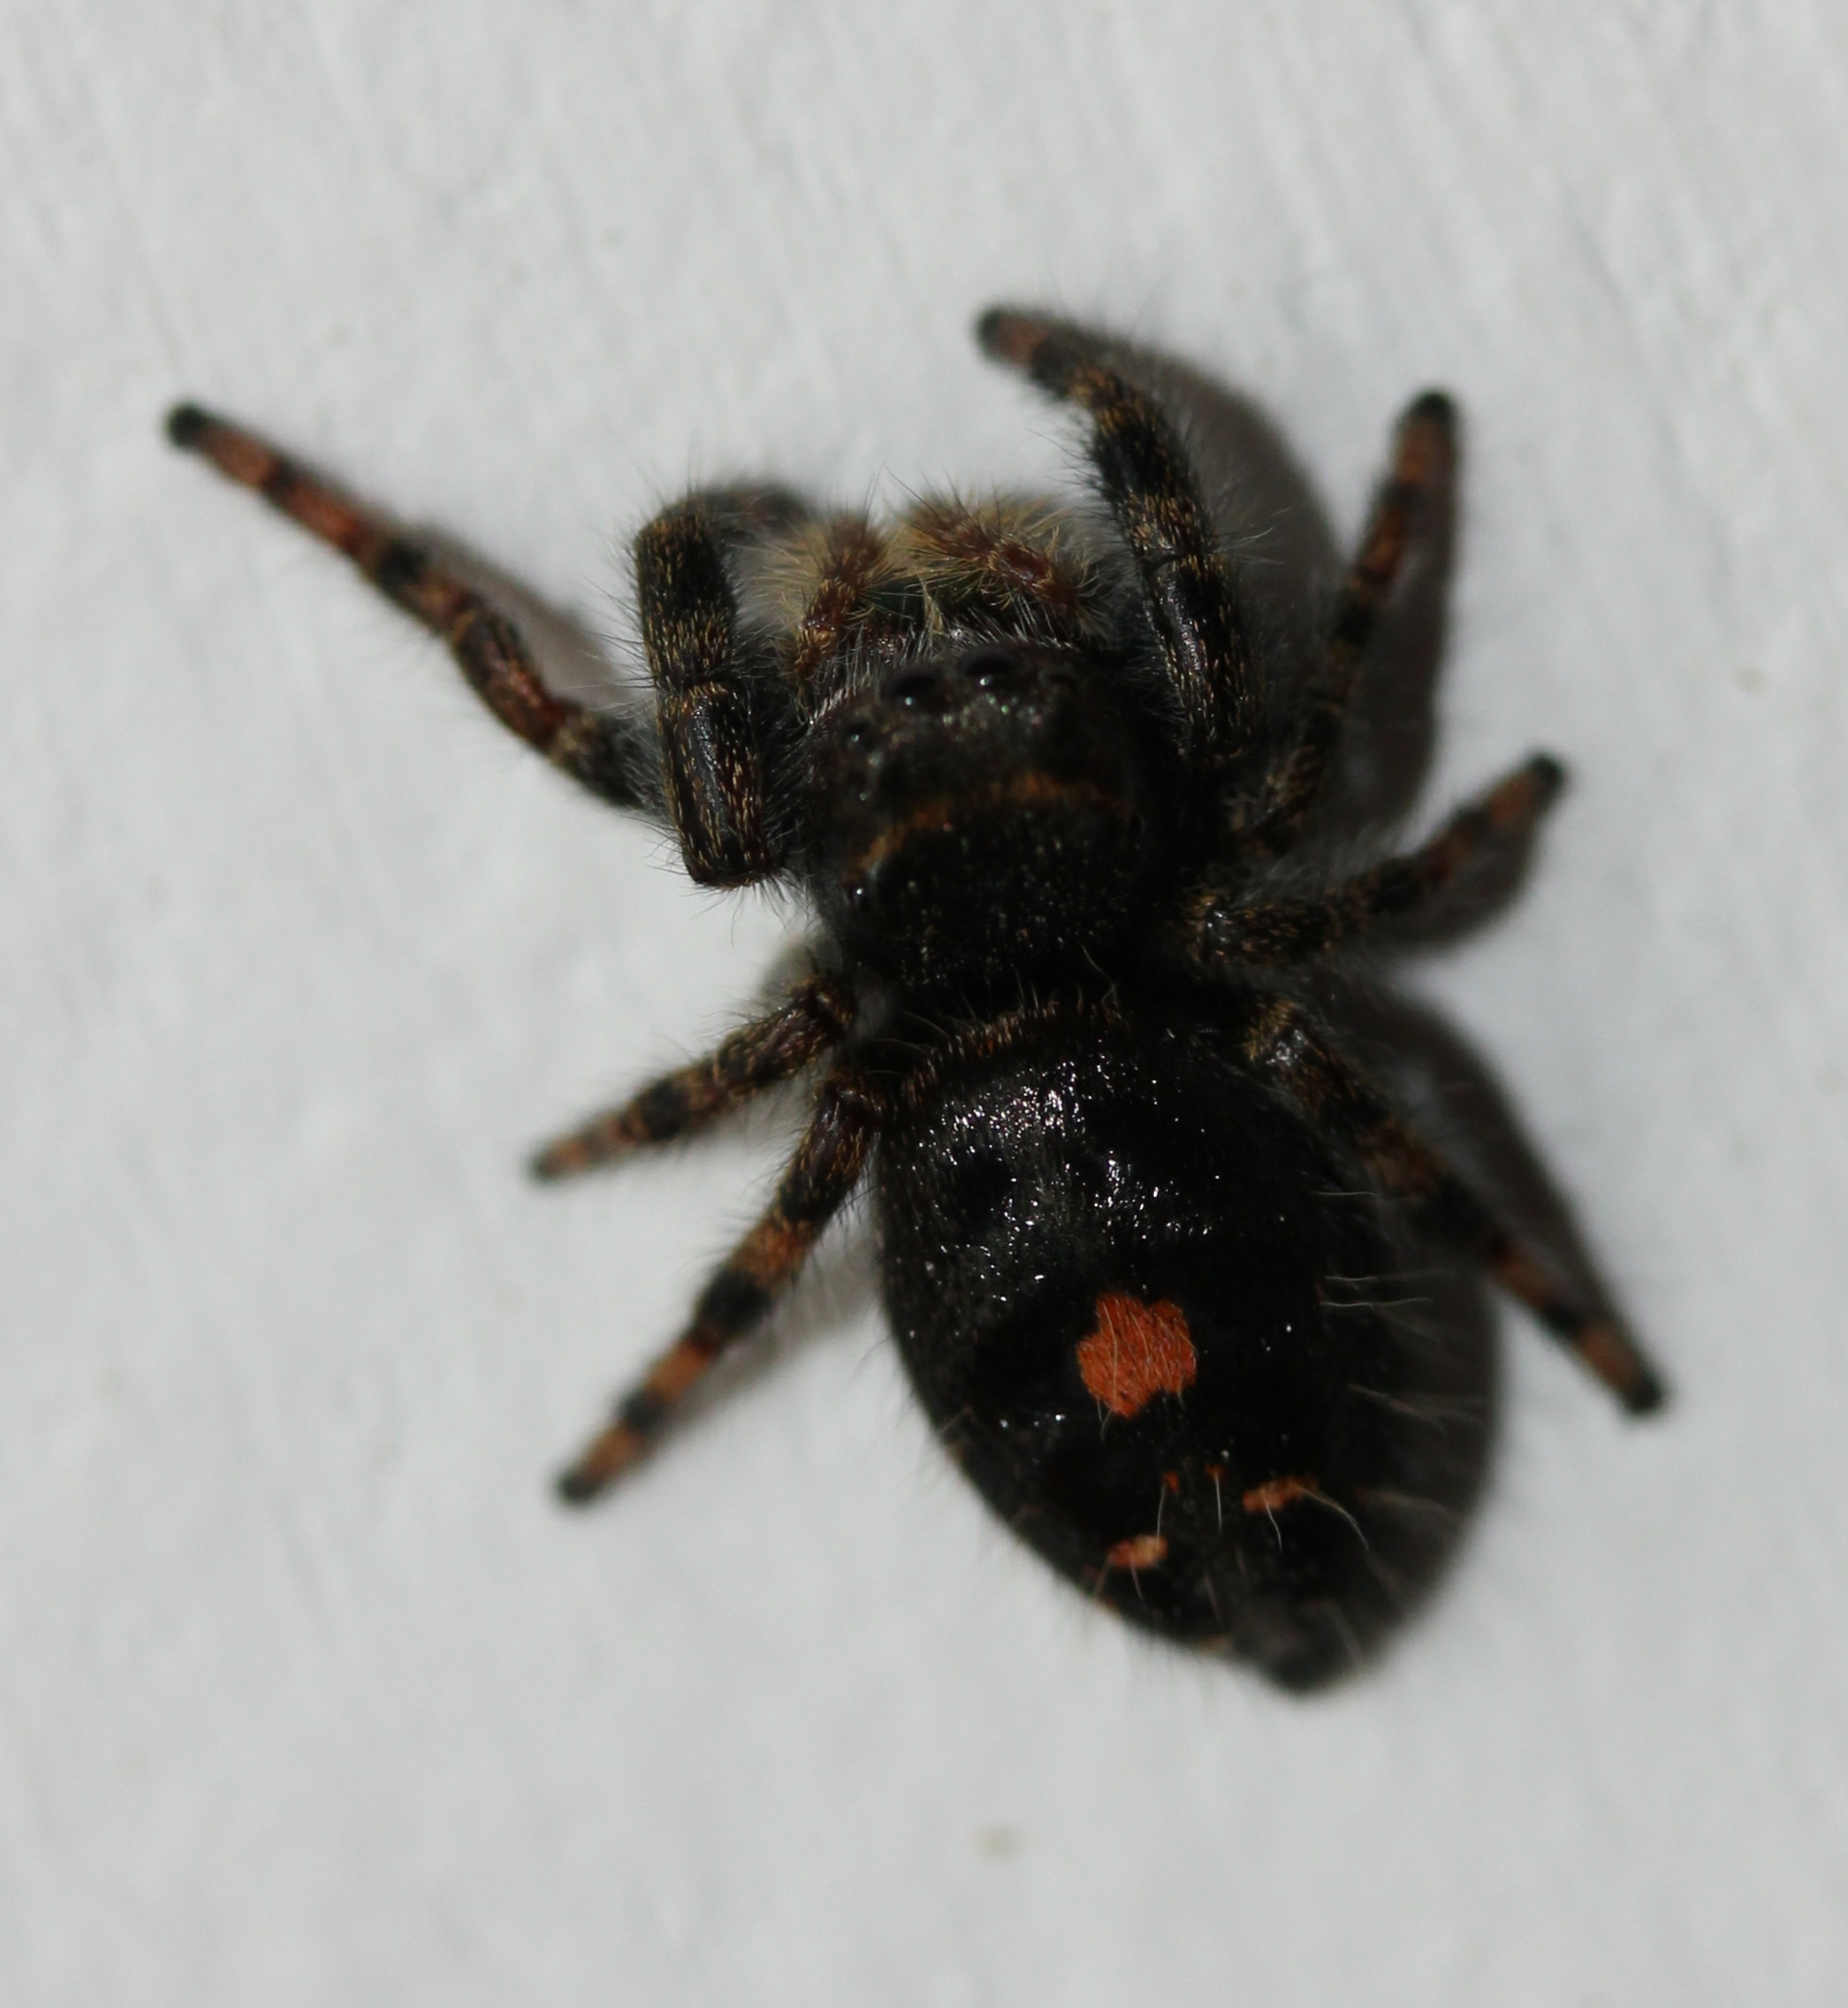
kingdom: Animalia
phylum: Arthropoda
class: Arachnida
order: Araneae
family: Salticidae
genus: Phidippus
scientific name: Phidippus audax
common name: Bold jumper
